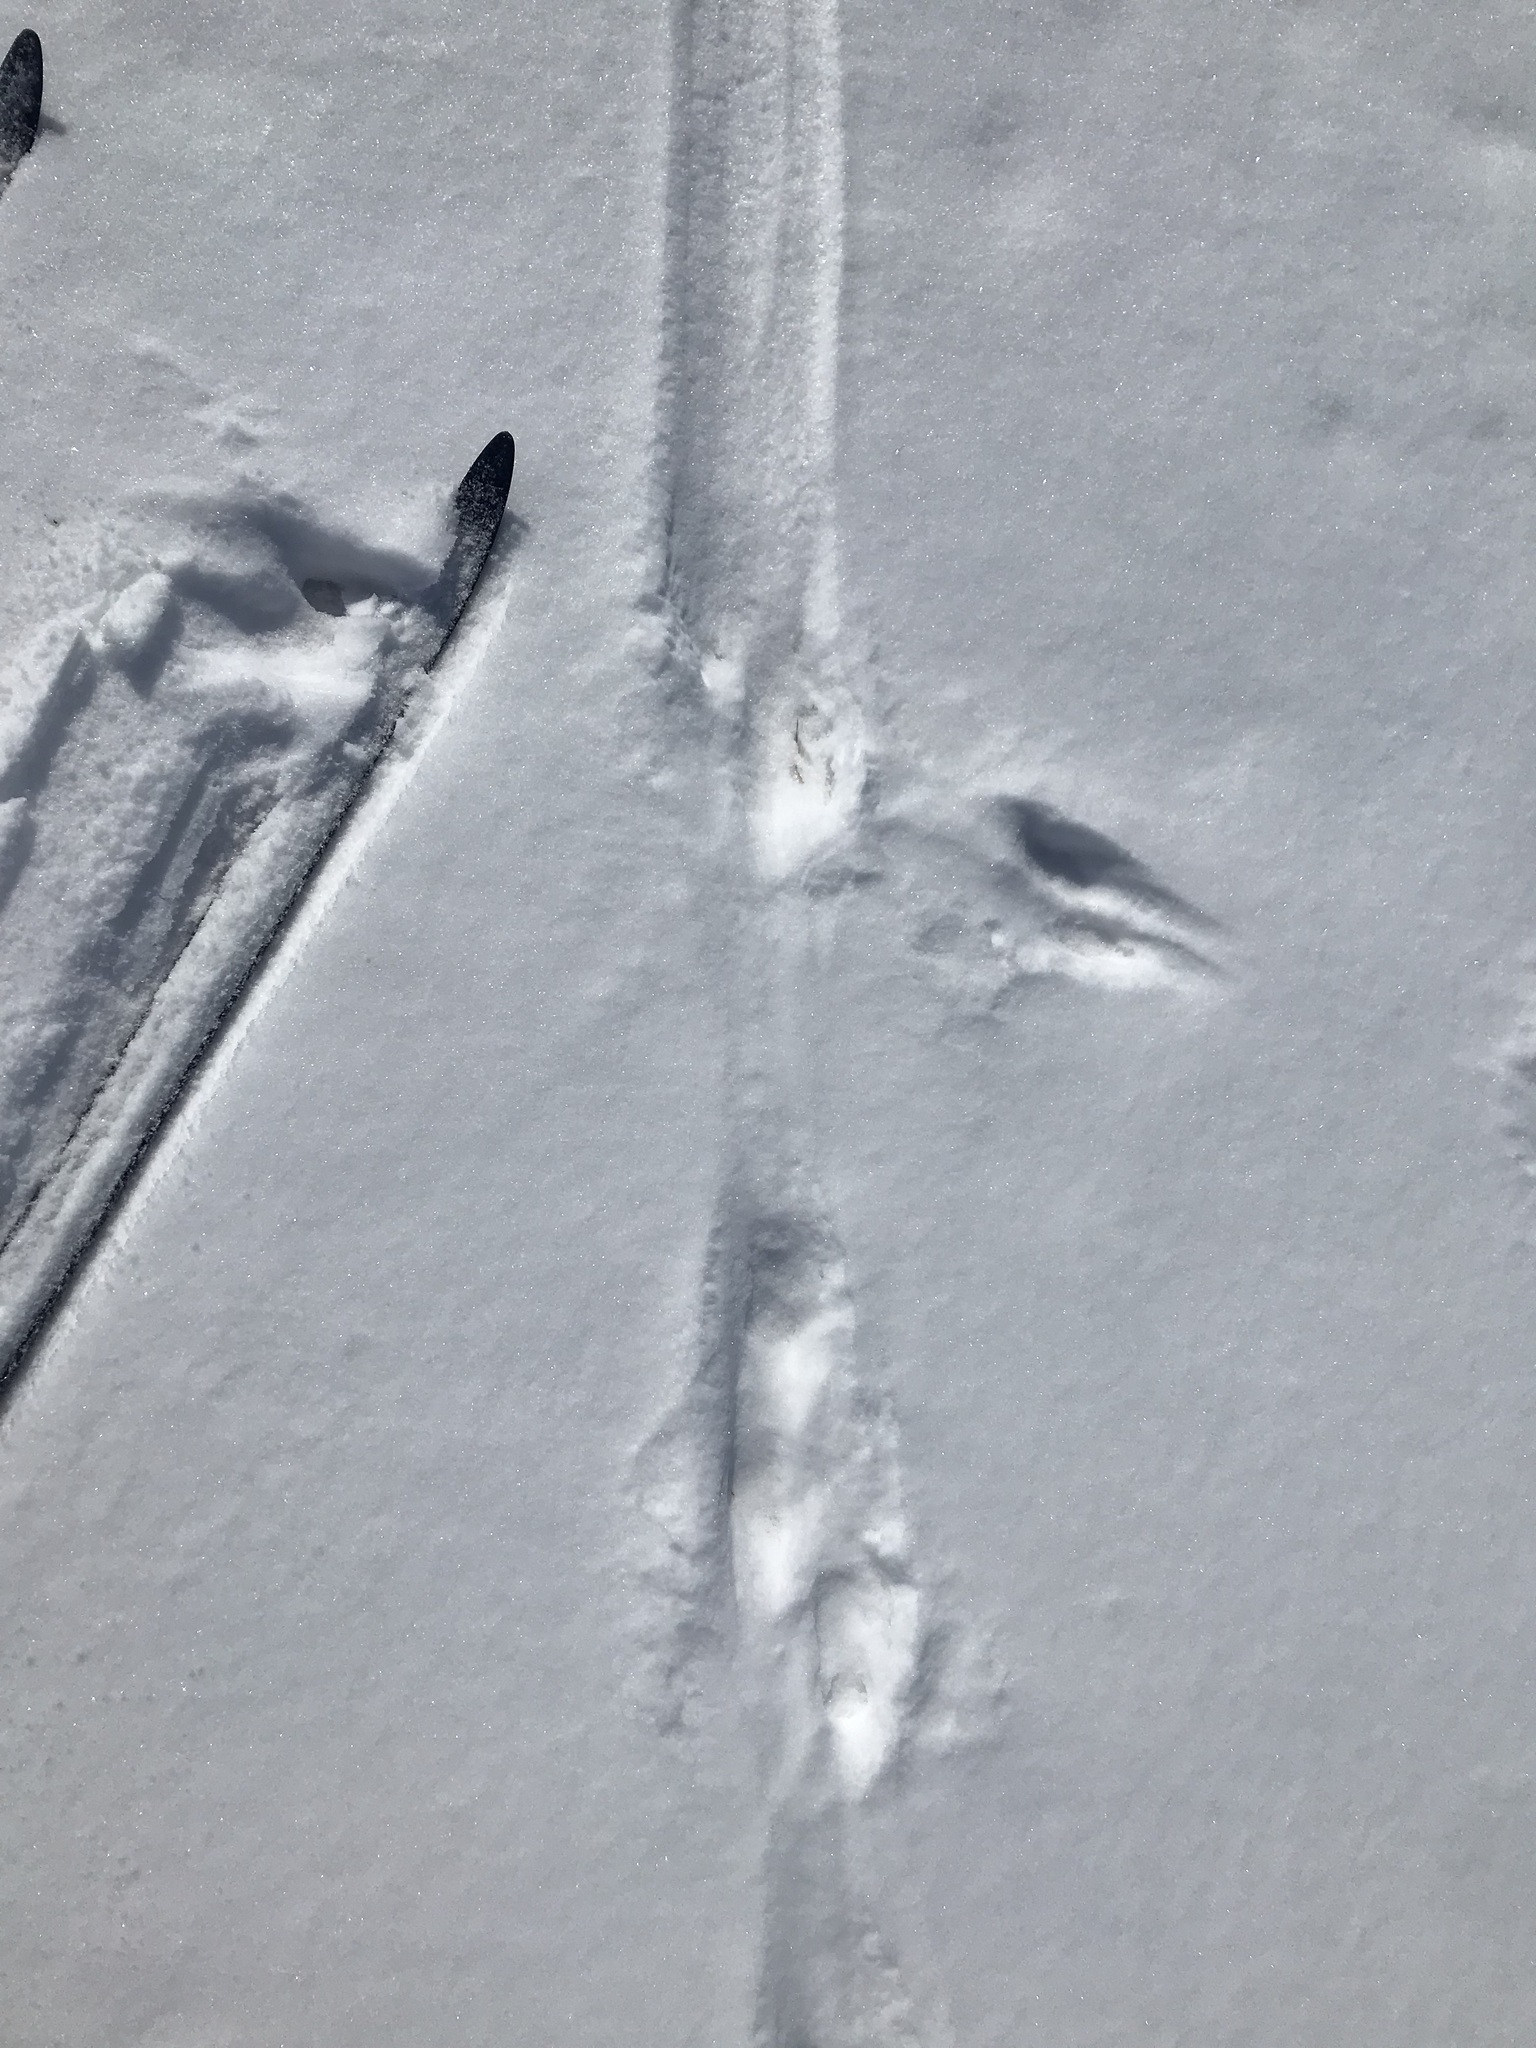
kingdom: Animalia
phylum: Chordata
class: Mammalia
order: Carnivora
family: Mustelidae
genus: Lontra
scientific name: Lontra canadensis
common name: North american river otter
